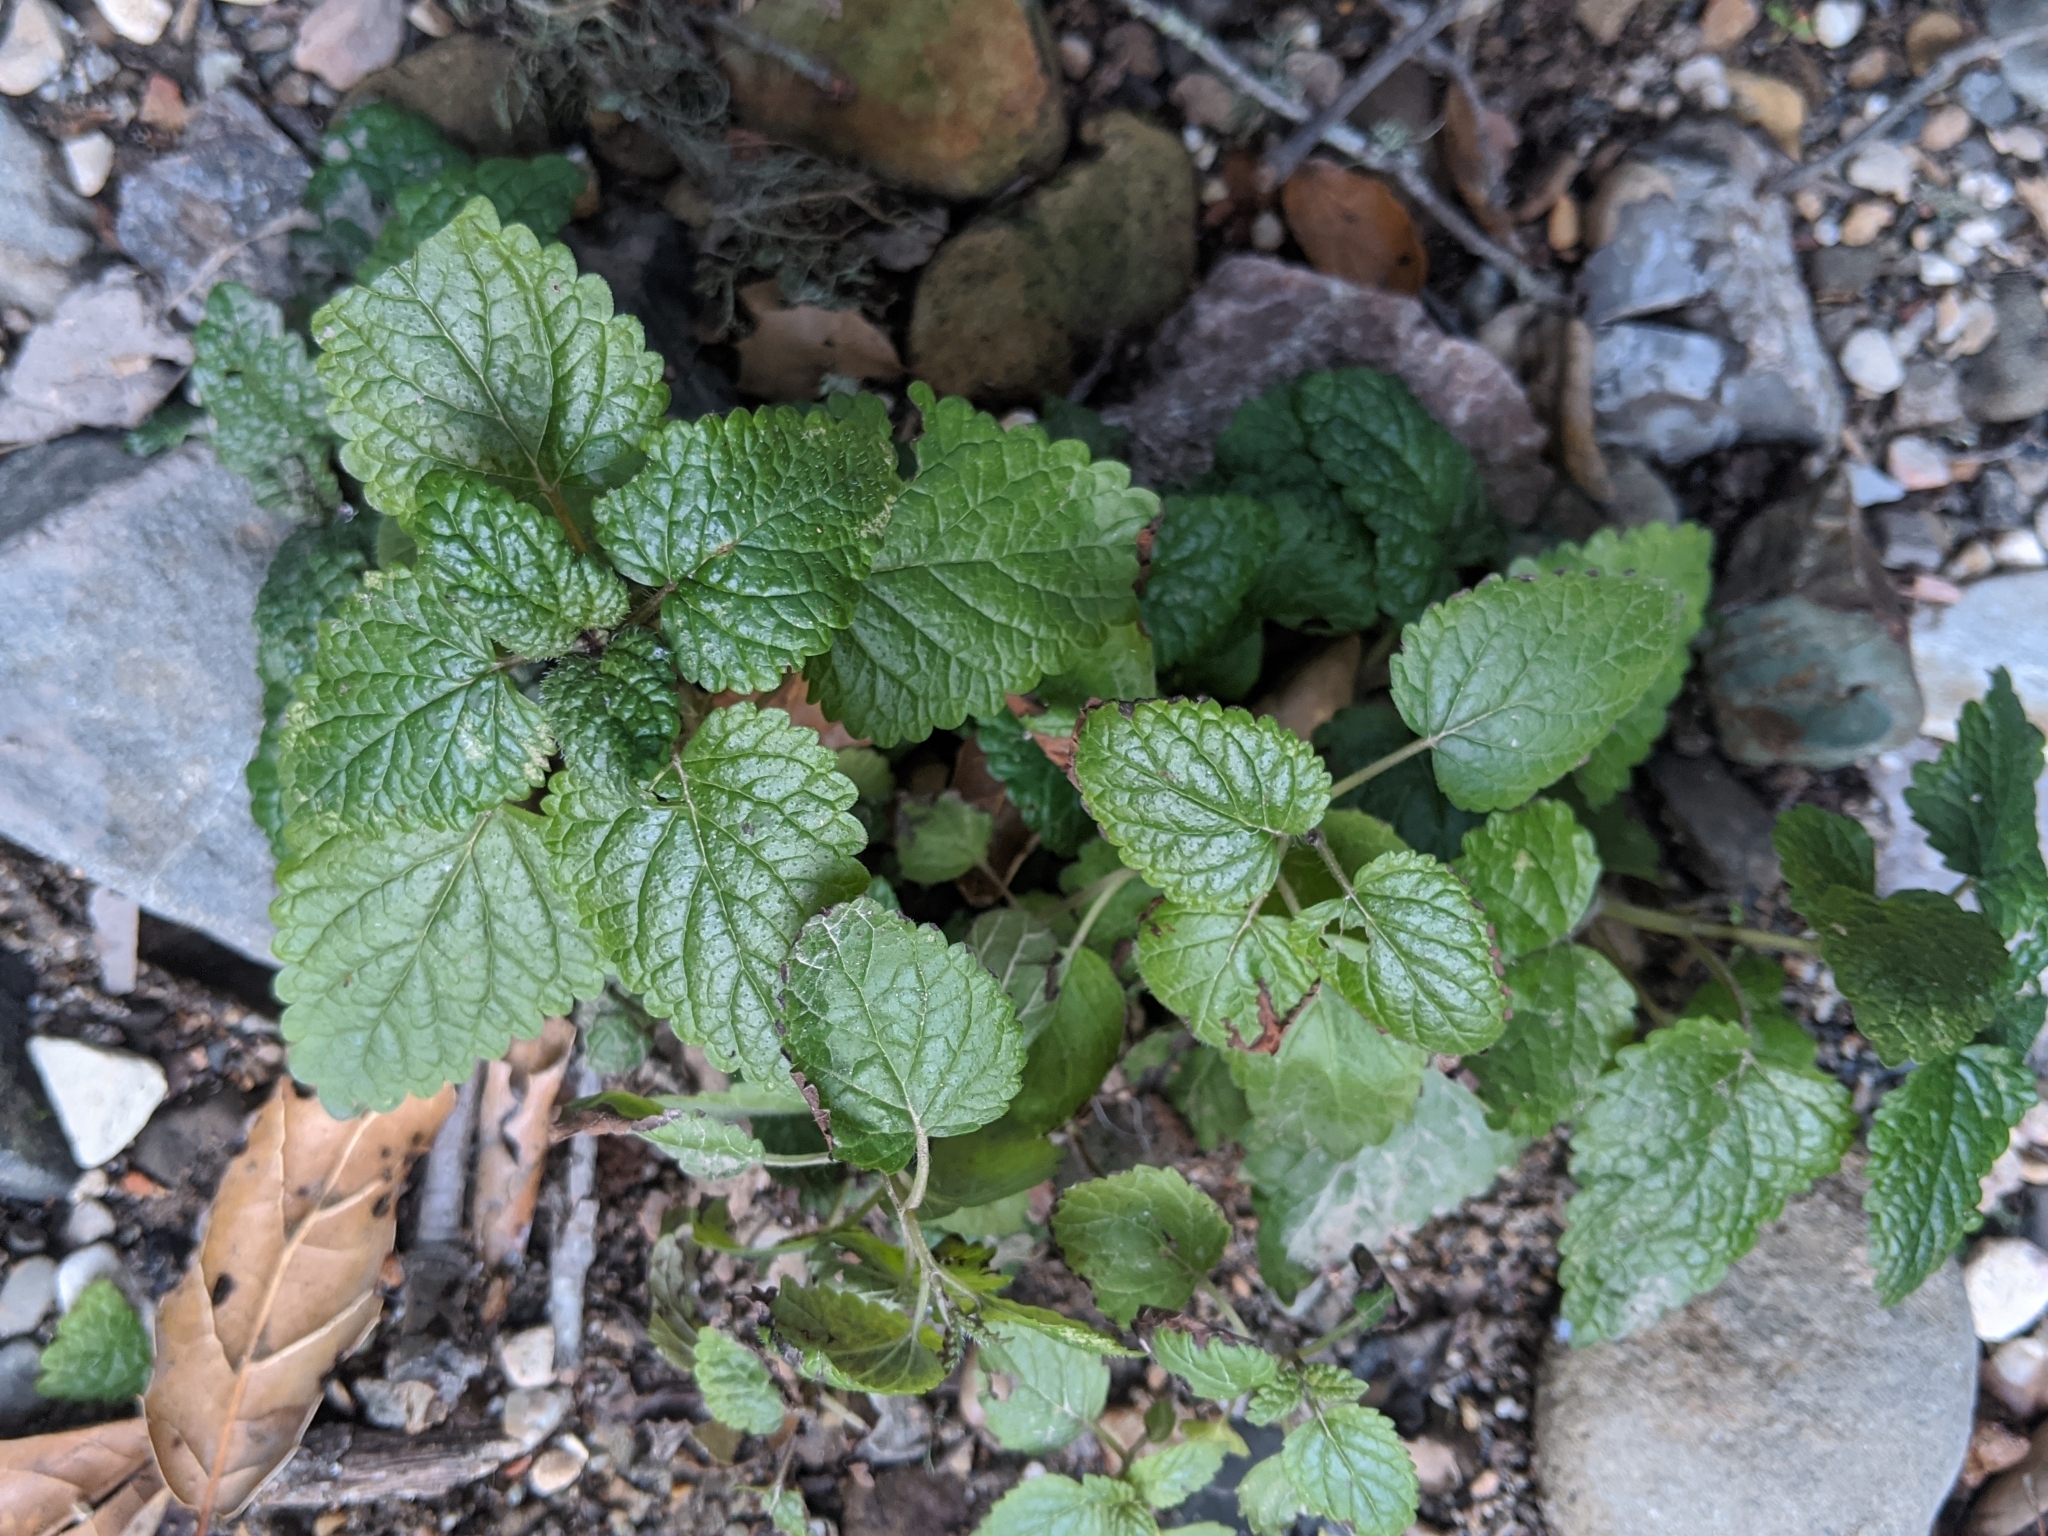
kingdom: Plantae
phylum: Tracheophyta
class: Magnoliopsida
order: Lamiales
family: Lamiaceae
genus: Melissa
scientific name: Melissa officinalis
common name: Balm
